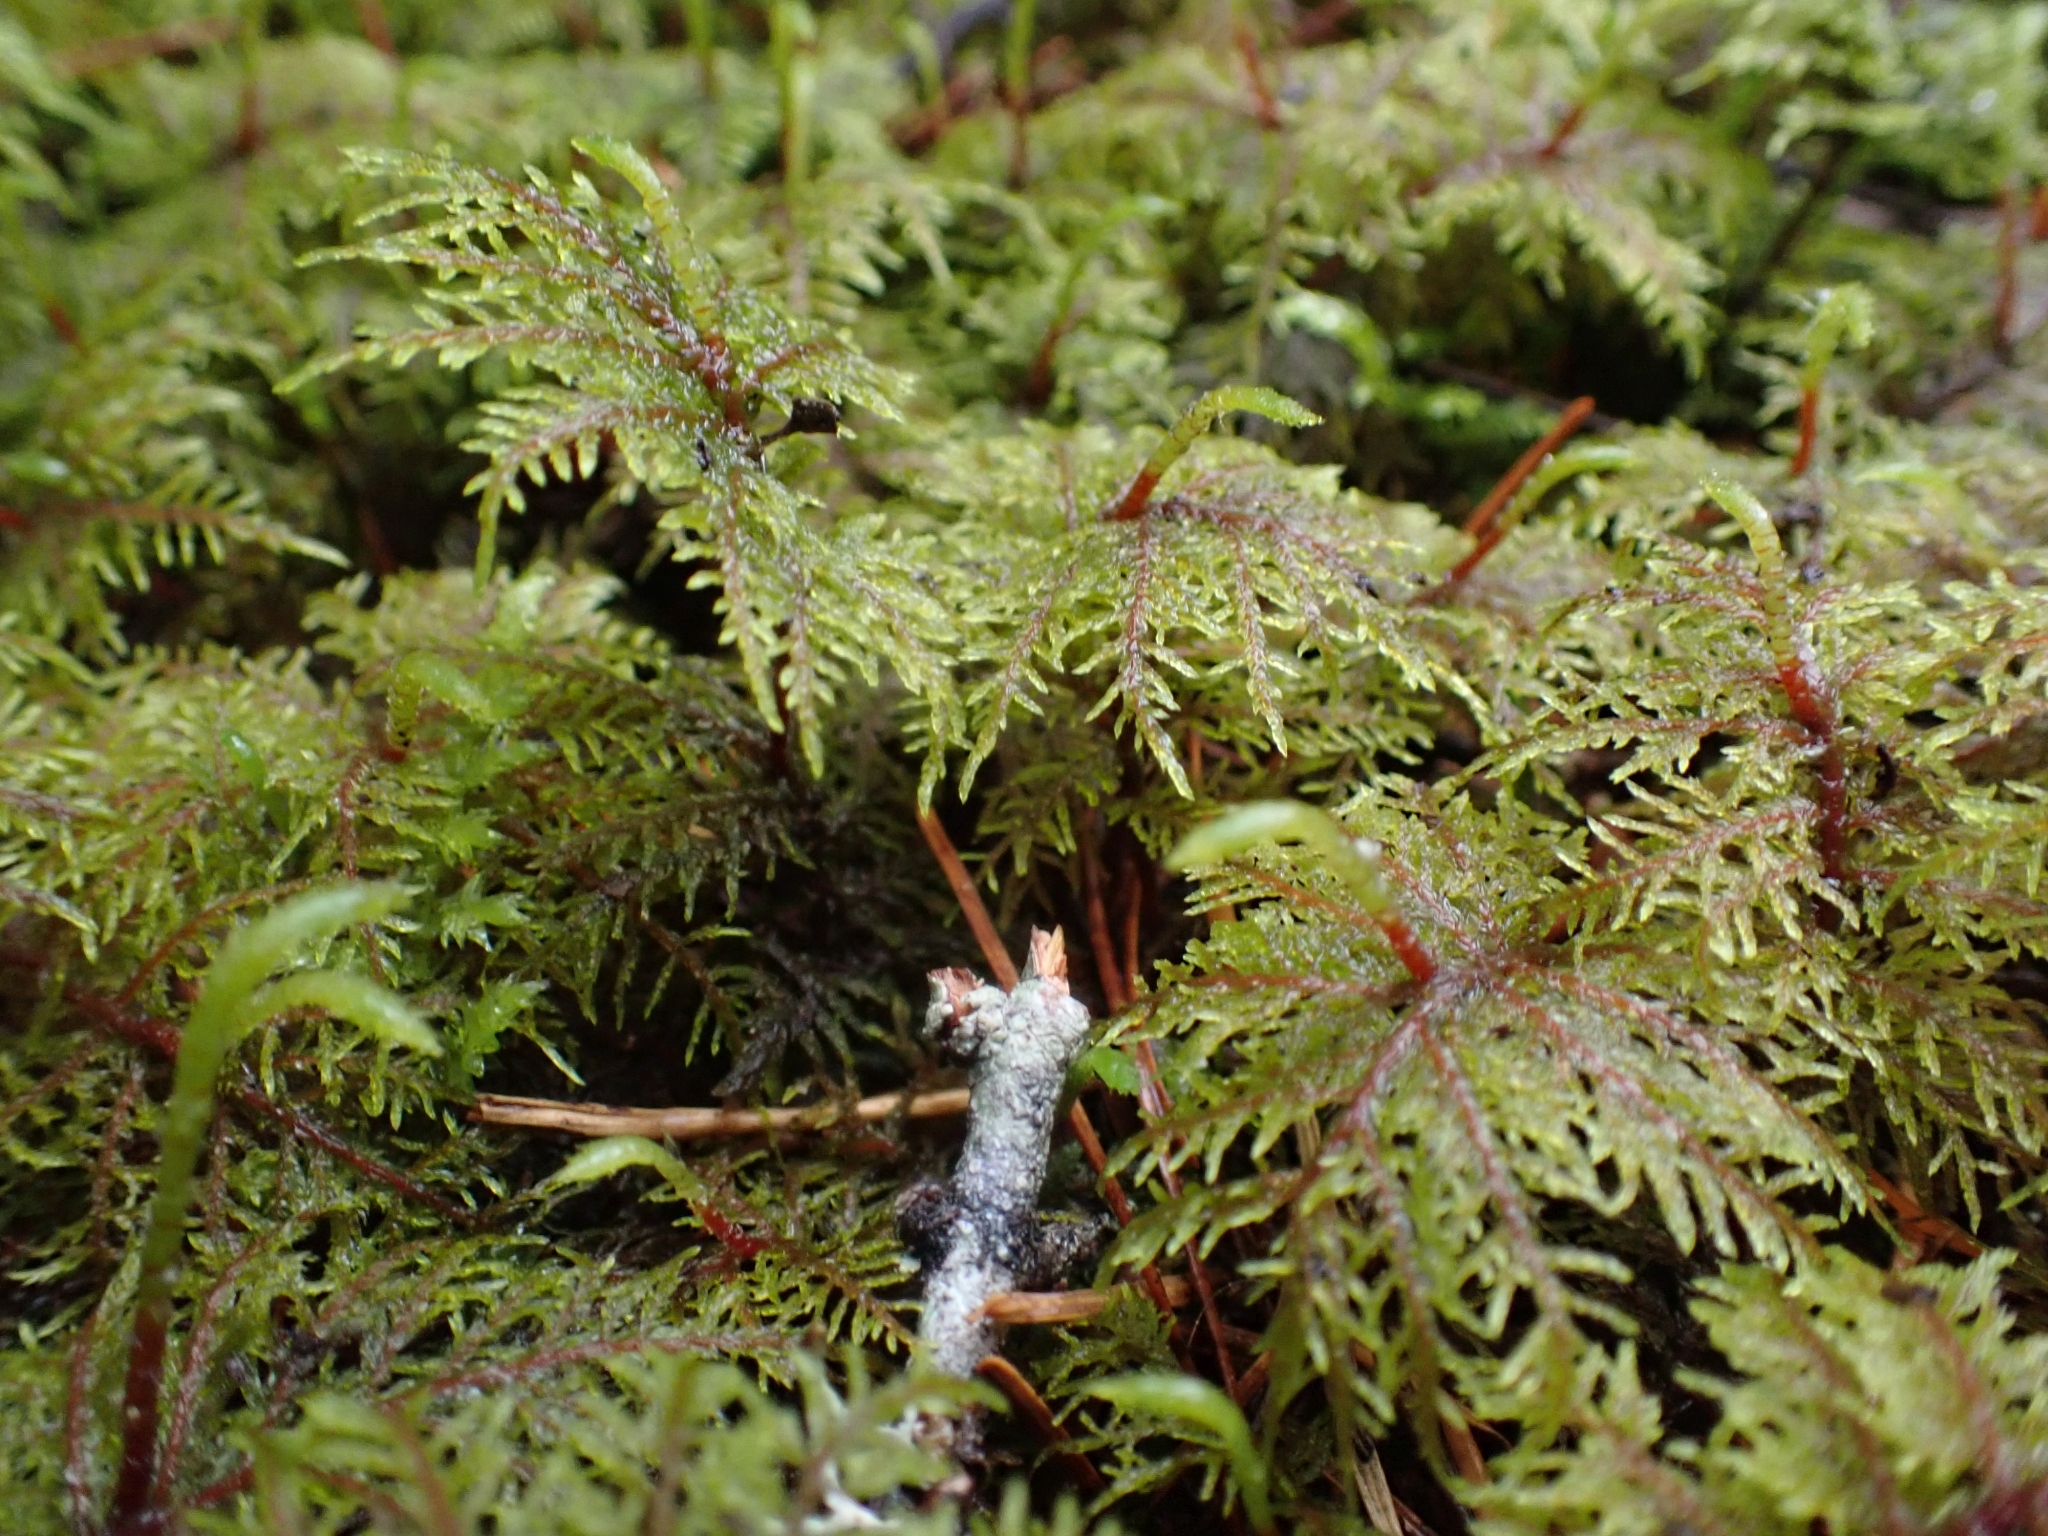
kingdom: Plantae
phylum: Bryophyta
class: Bryopsida
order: Hypnales
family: Hylocomiaceae
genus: Hylocomium
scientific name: Hylocomium splendens
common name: Stairstep moss
